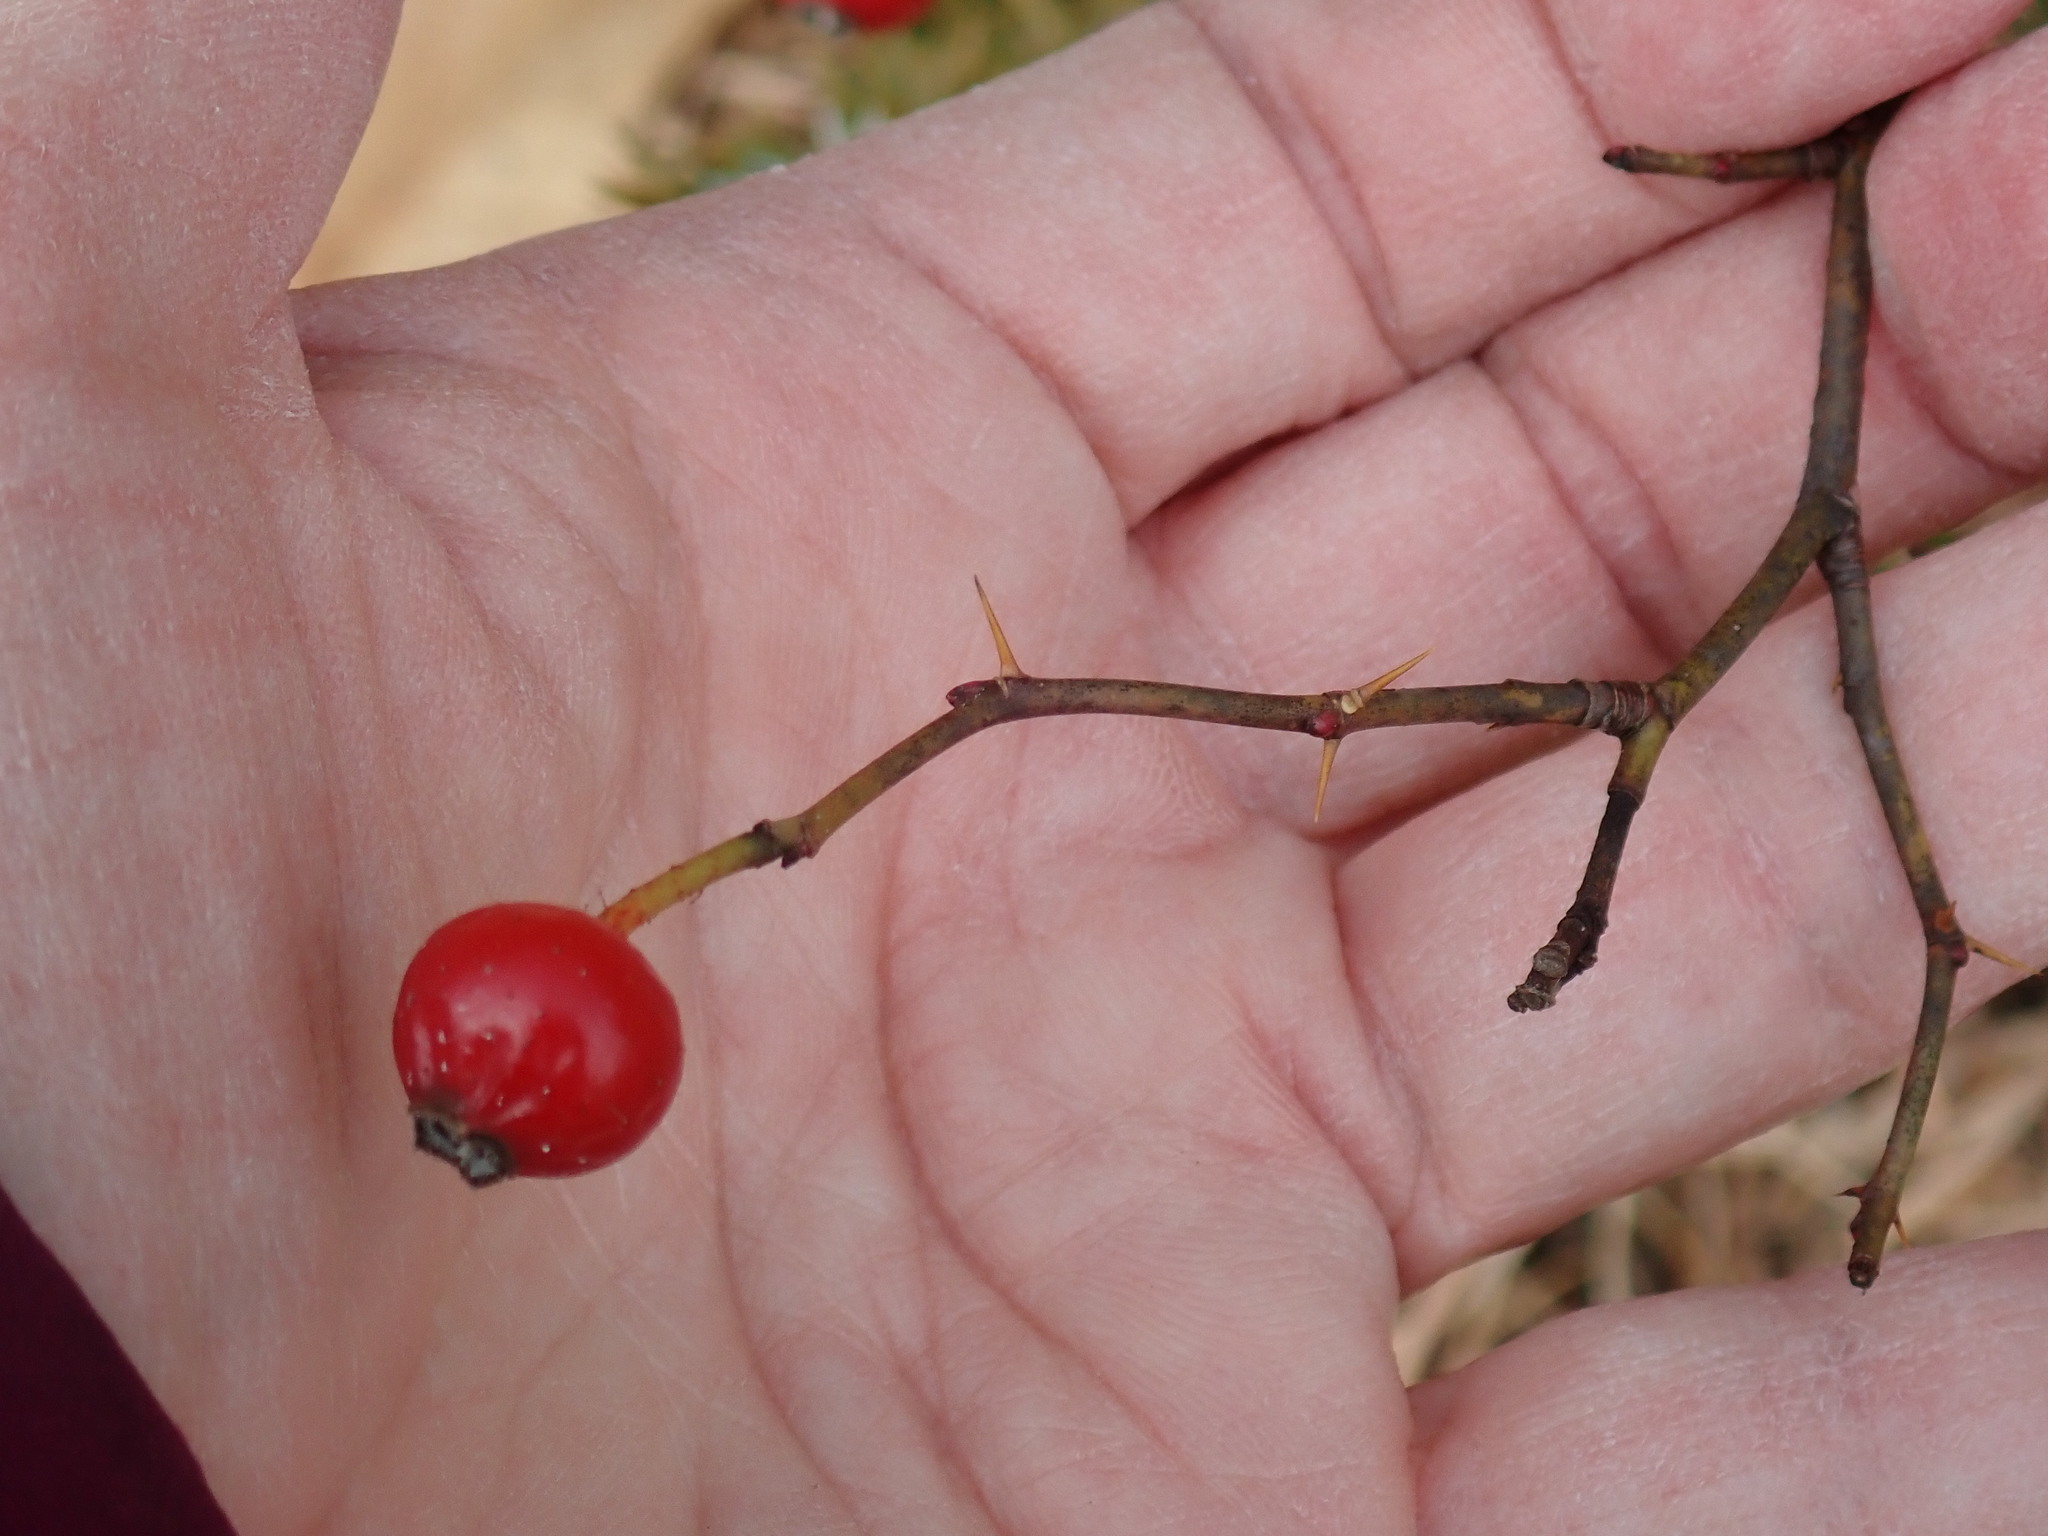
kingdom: Plantae
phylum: Tracheophyta
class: Magnoliopsida
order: Rosales
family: Rosaceae
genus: Rosa
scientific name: Rosa carolina
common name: Pasture rose
